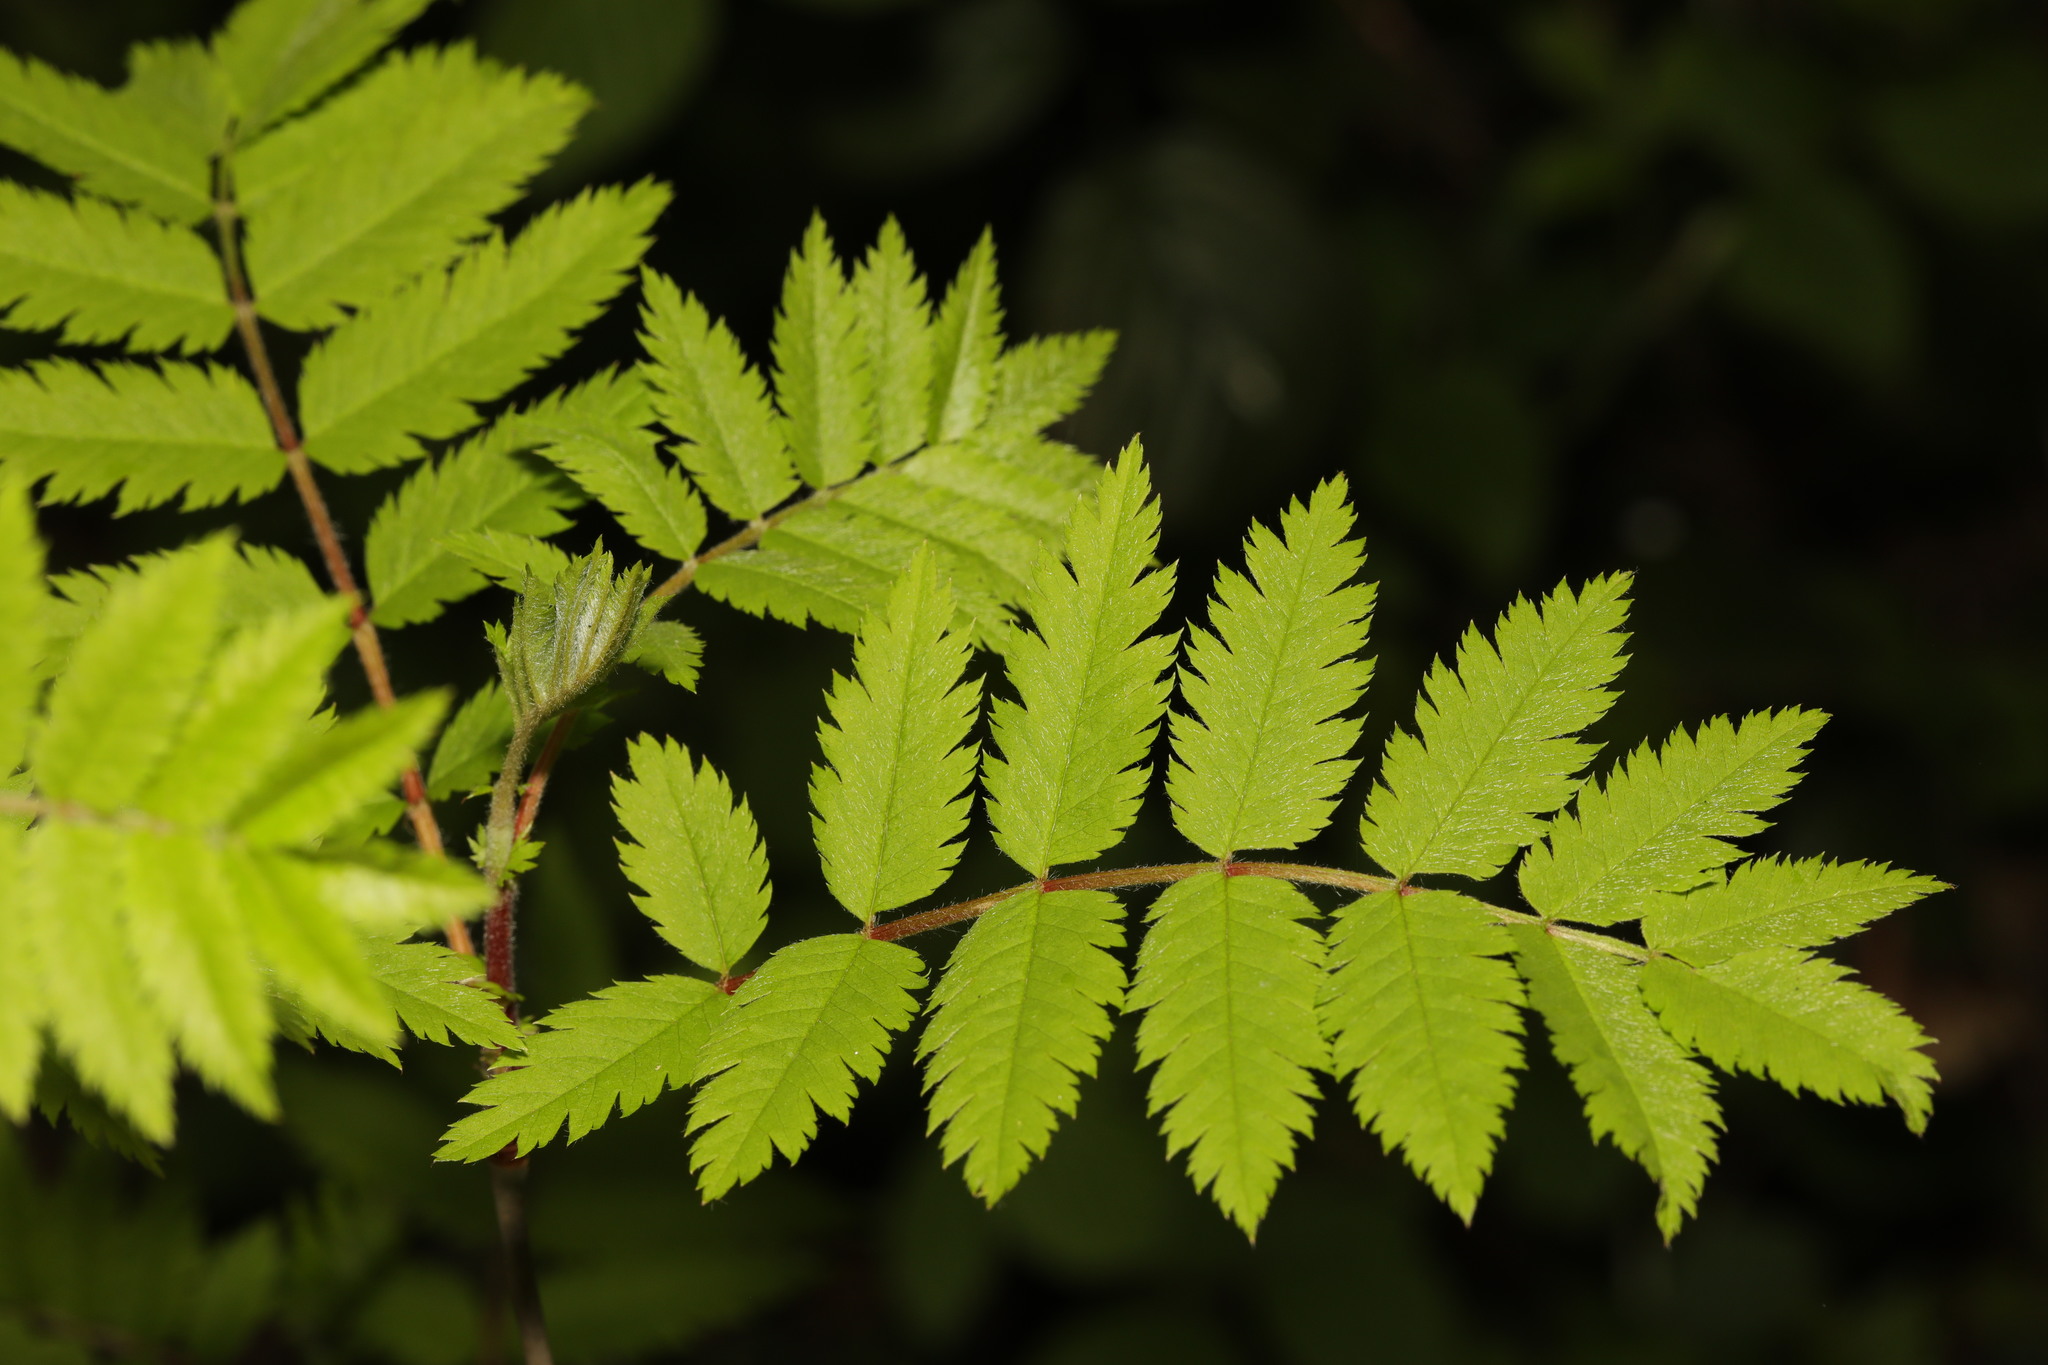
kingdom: Plantae
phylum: Tracheophyta
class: Magnoliopsida
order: Rosales
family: Rosaceae
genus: Sorbus
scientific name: Sorbus aucuparia
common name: Rowan
